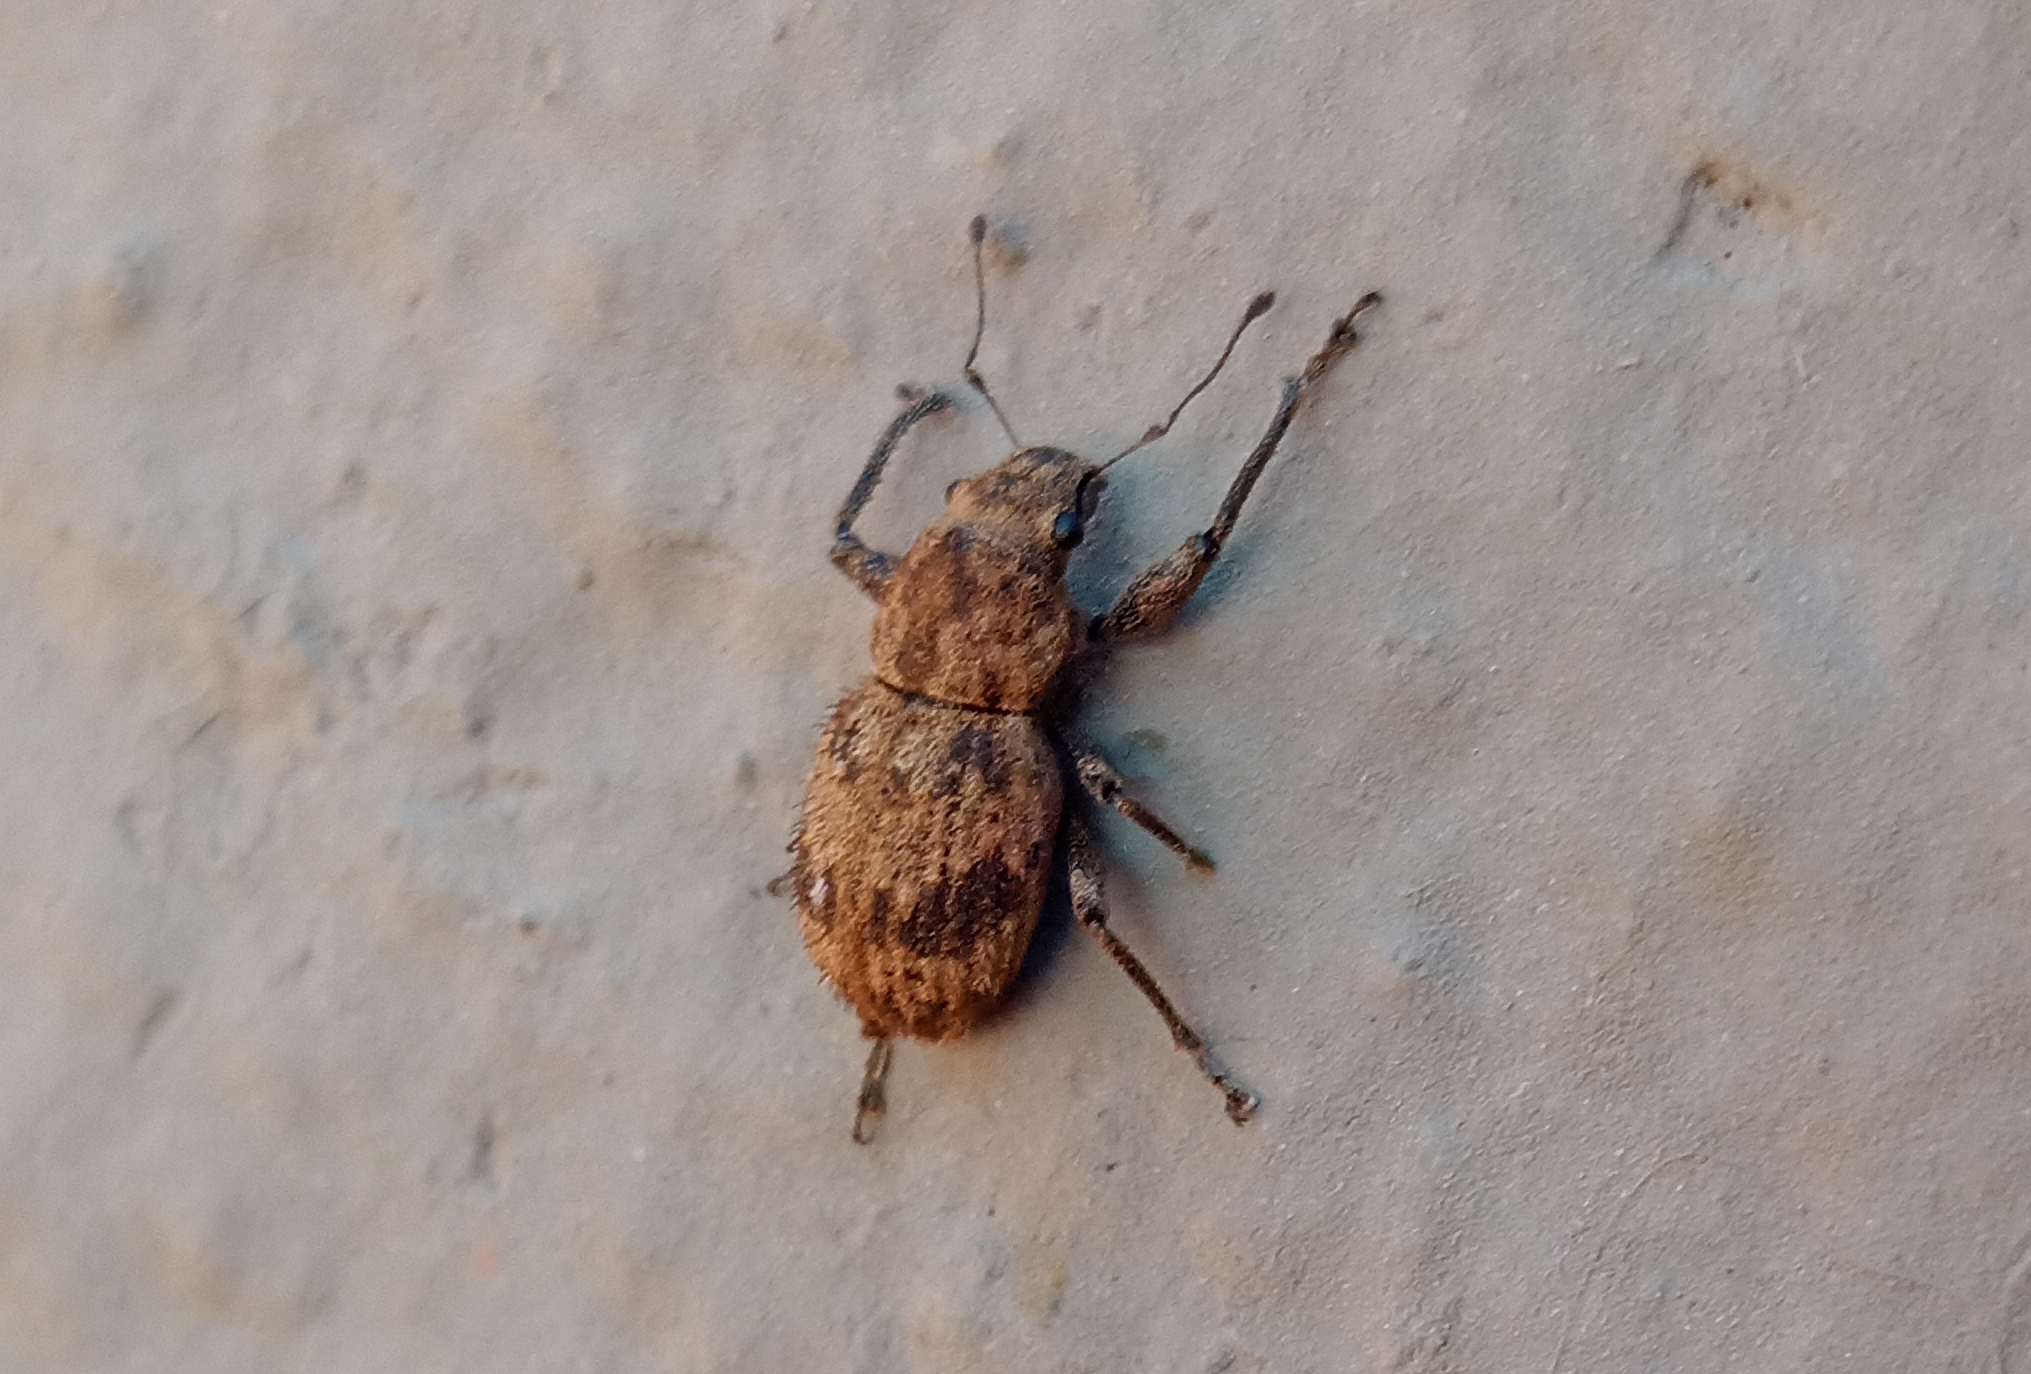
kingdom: Animalia
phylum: Arthropoda
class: Insecta
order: Coleoptera
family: Curculionidae
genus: Pantomorus
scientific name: Pantomorus
